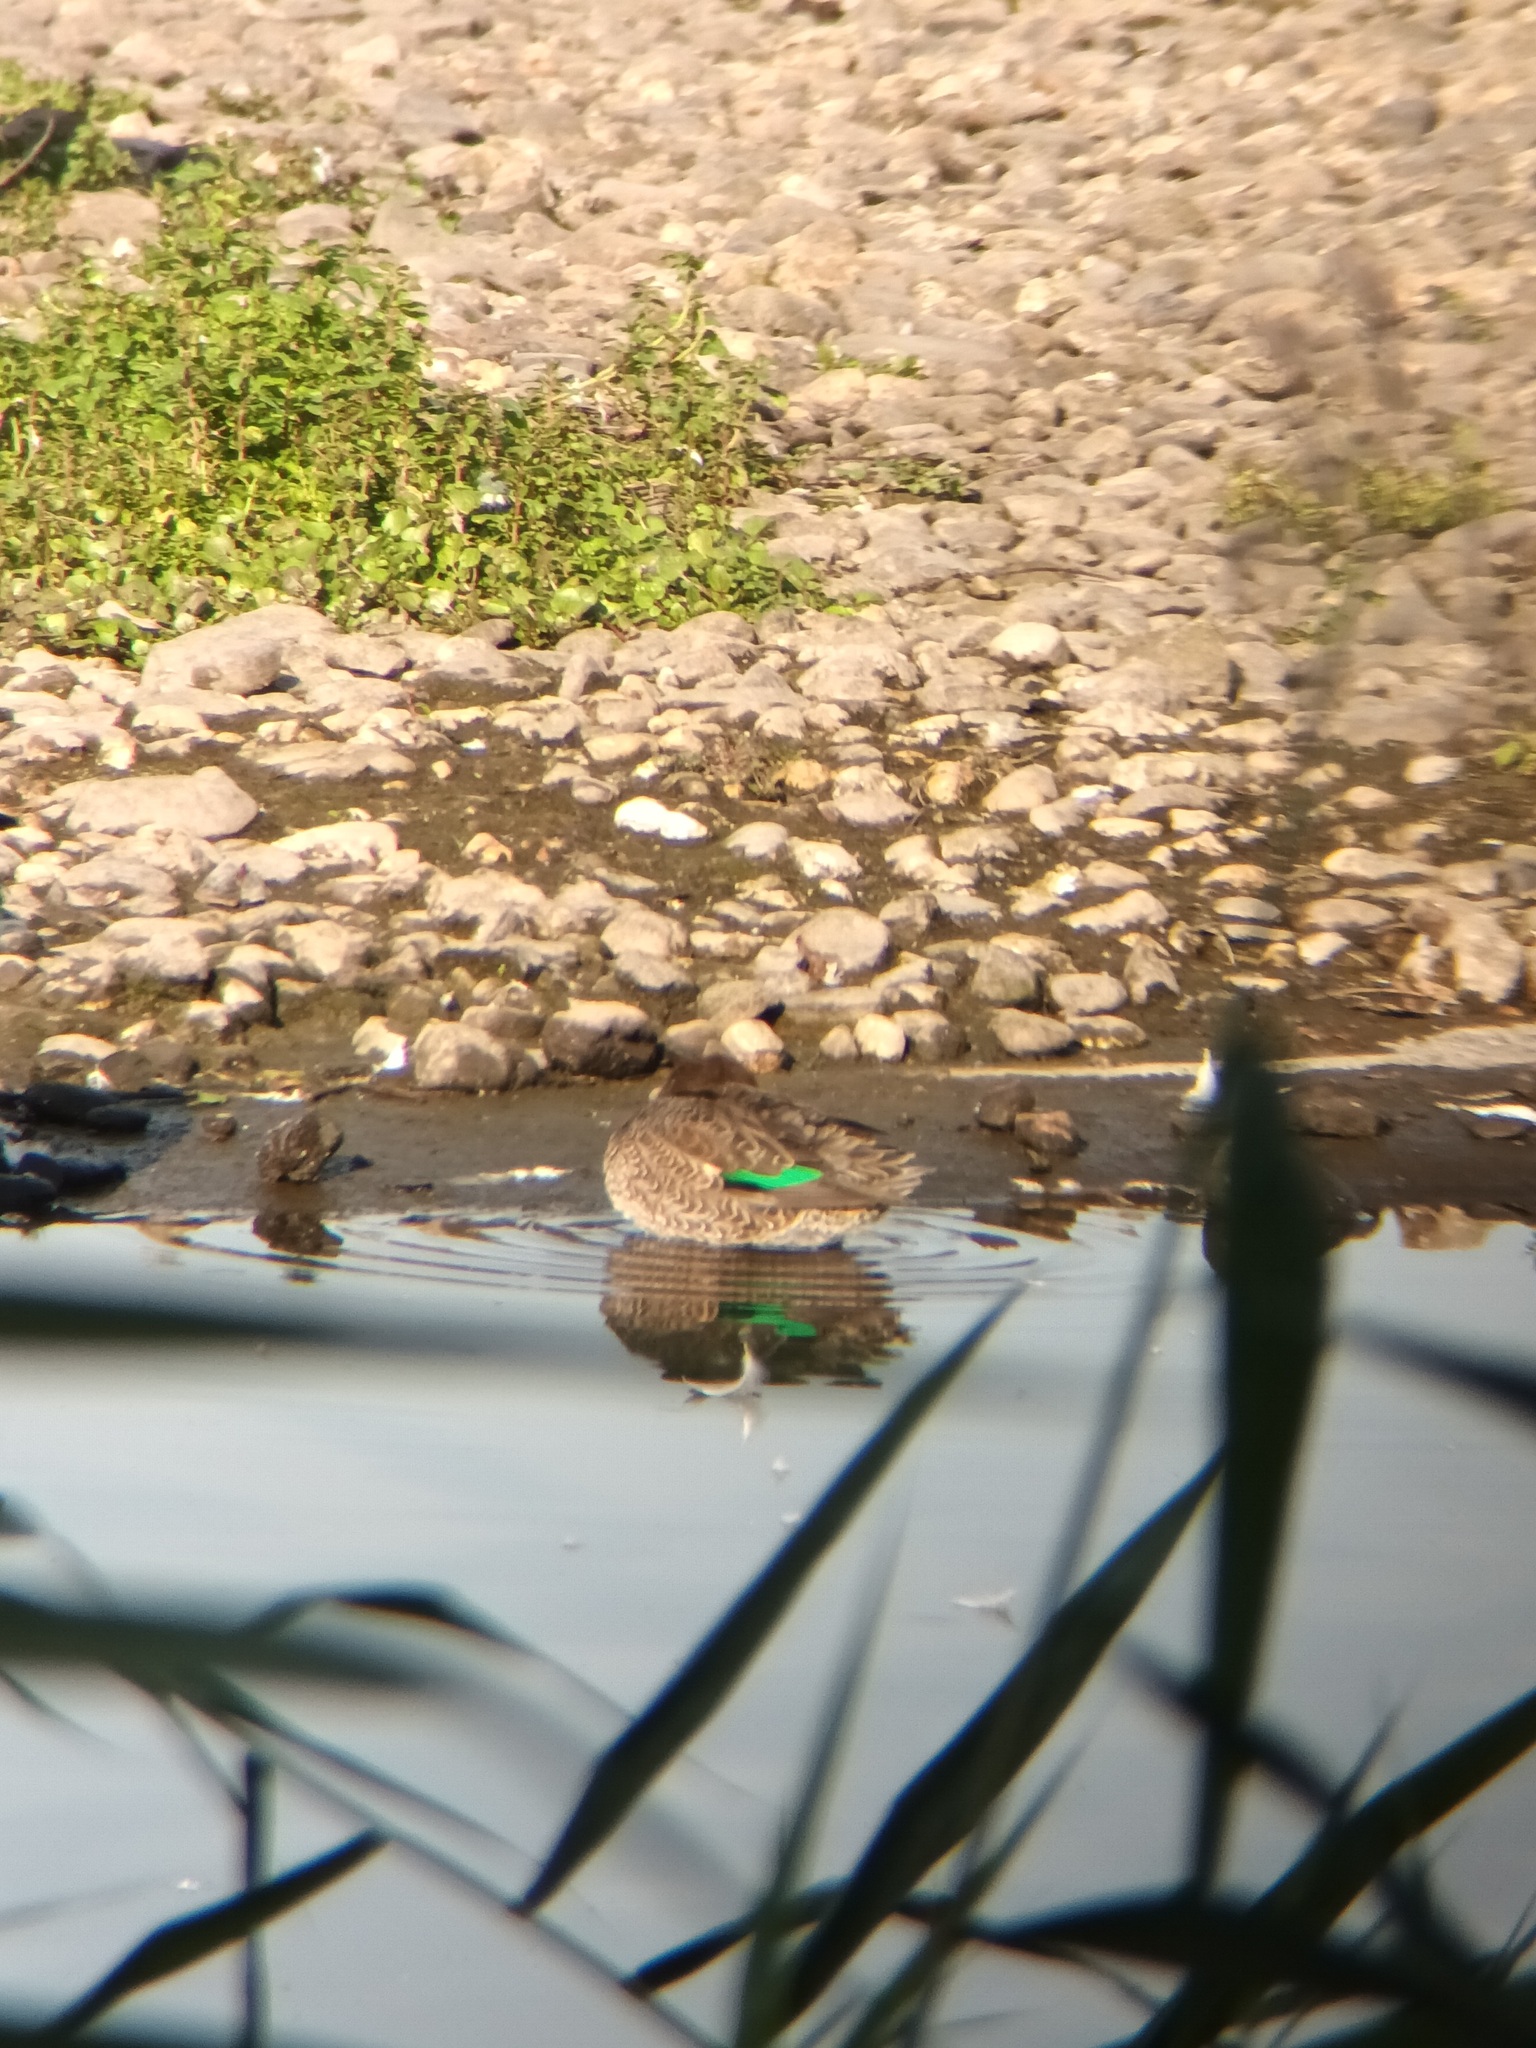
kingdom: Animalia
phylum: Chordata
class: Aves
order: Anseriformes
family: Anatidae
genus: Anas
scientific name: Anas crecca
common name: Eurasian teal
